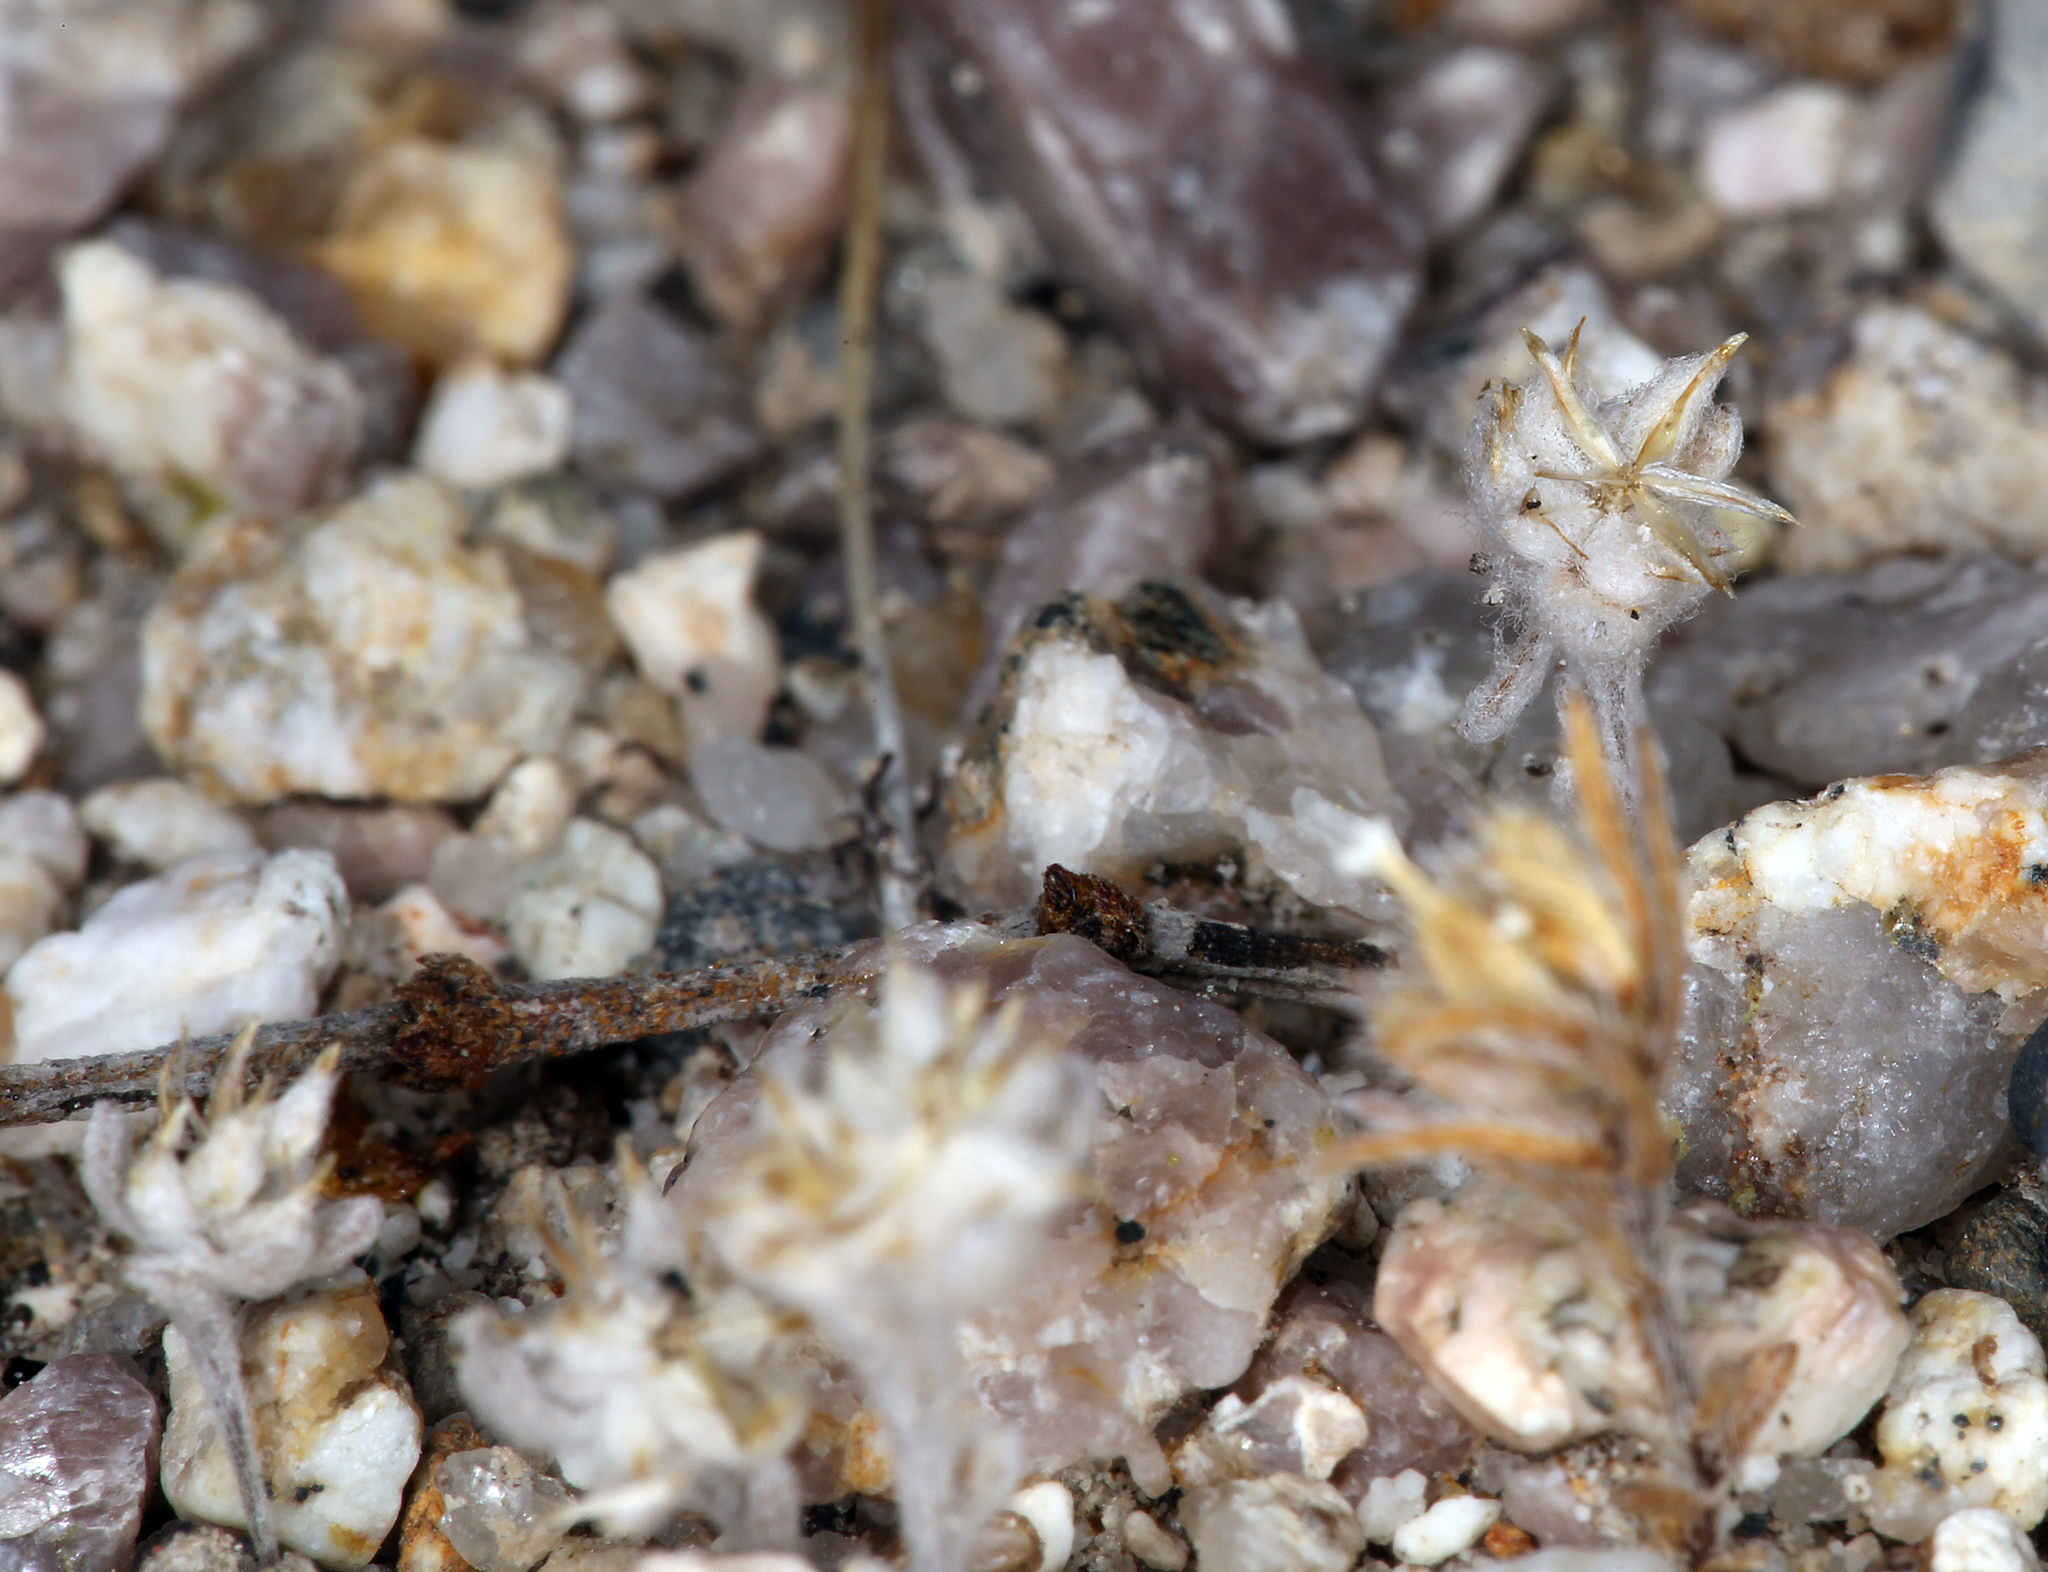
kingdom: Plantae
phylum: Tracheophyta
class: Magnoliopsida
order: Asterales
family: Asteraceae
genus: Logfia
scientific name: Logfia depressa
